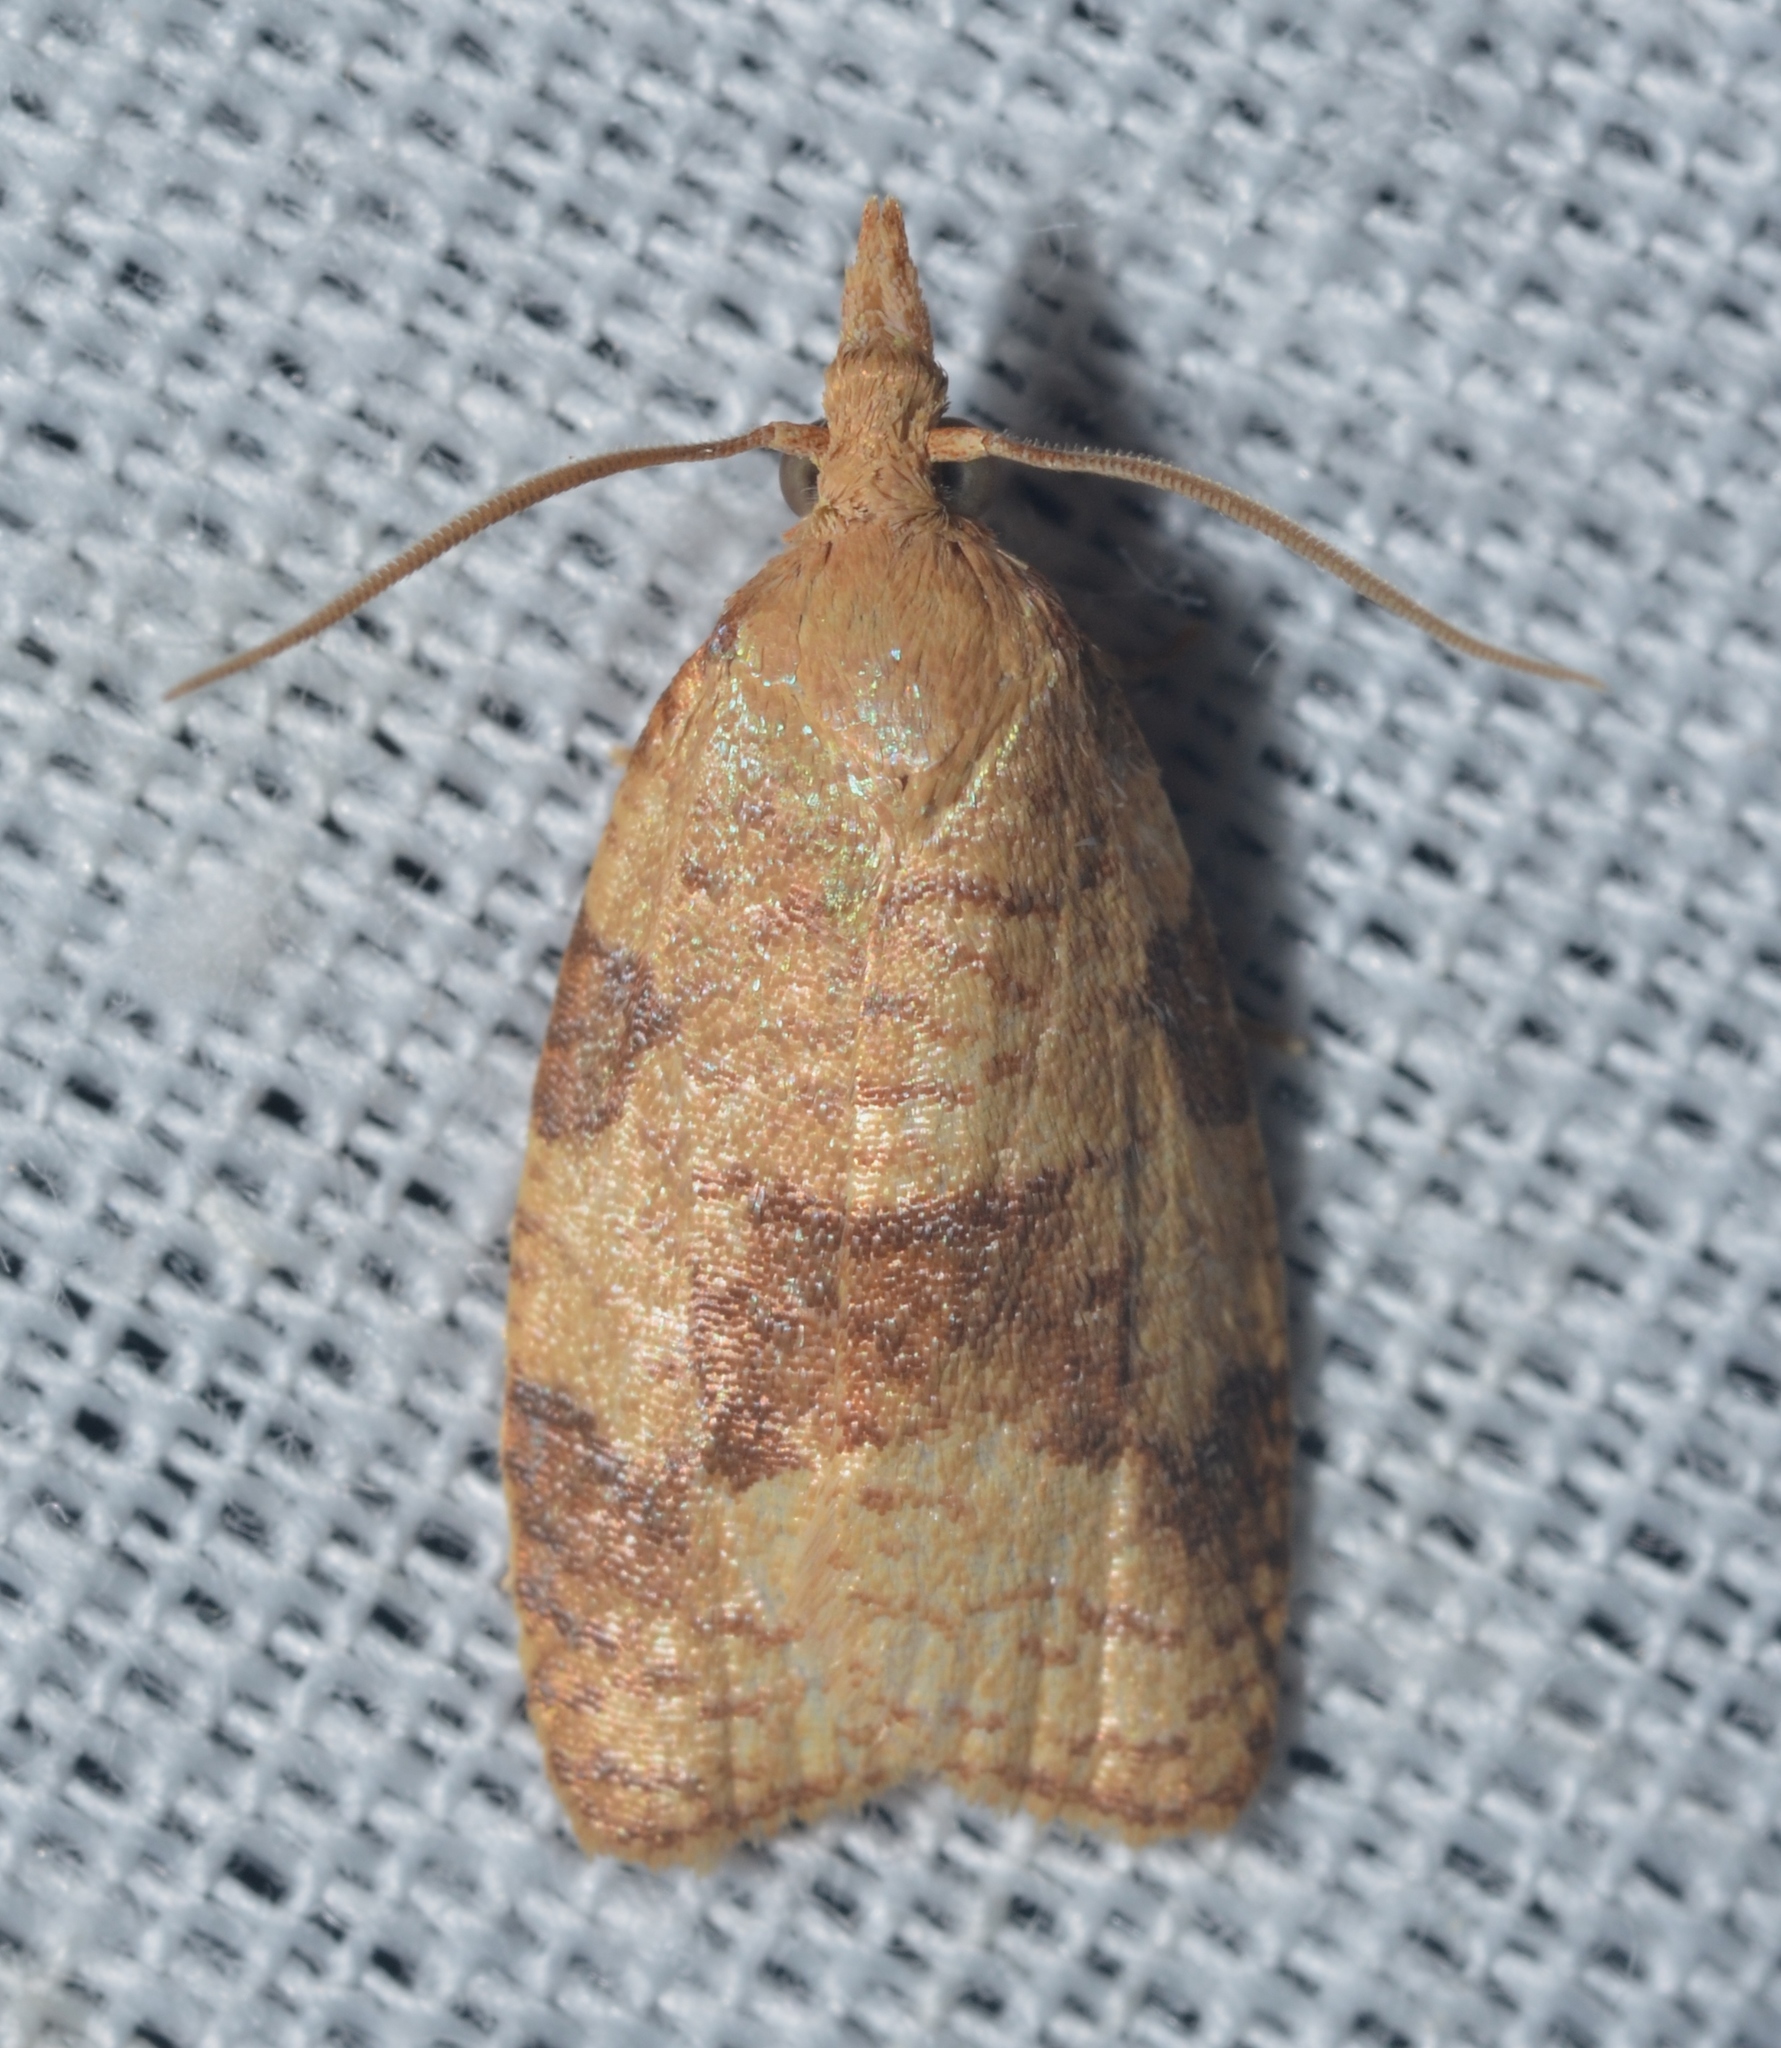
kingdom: Animalia
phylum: Arthropoda
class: Insecta
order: Lepidoptera
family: Tortricidae
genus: Cenopis
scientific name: Cenopis saracana
